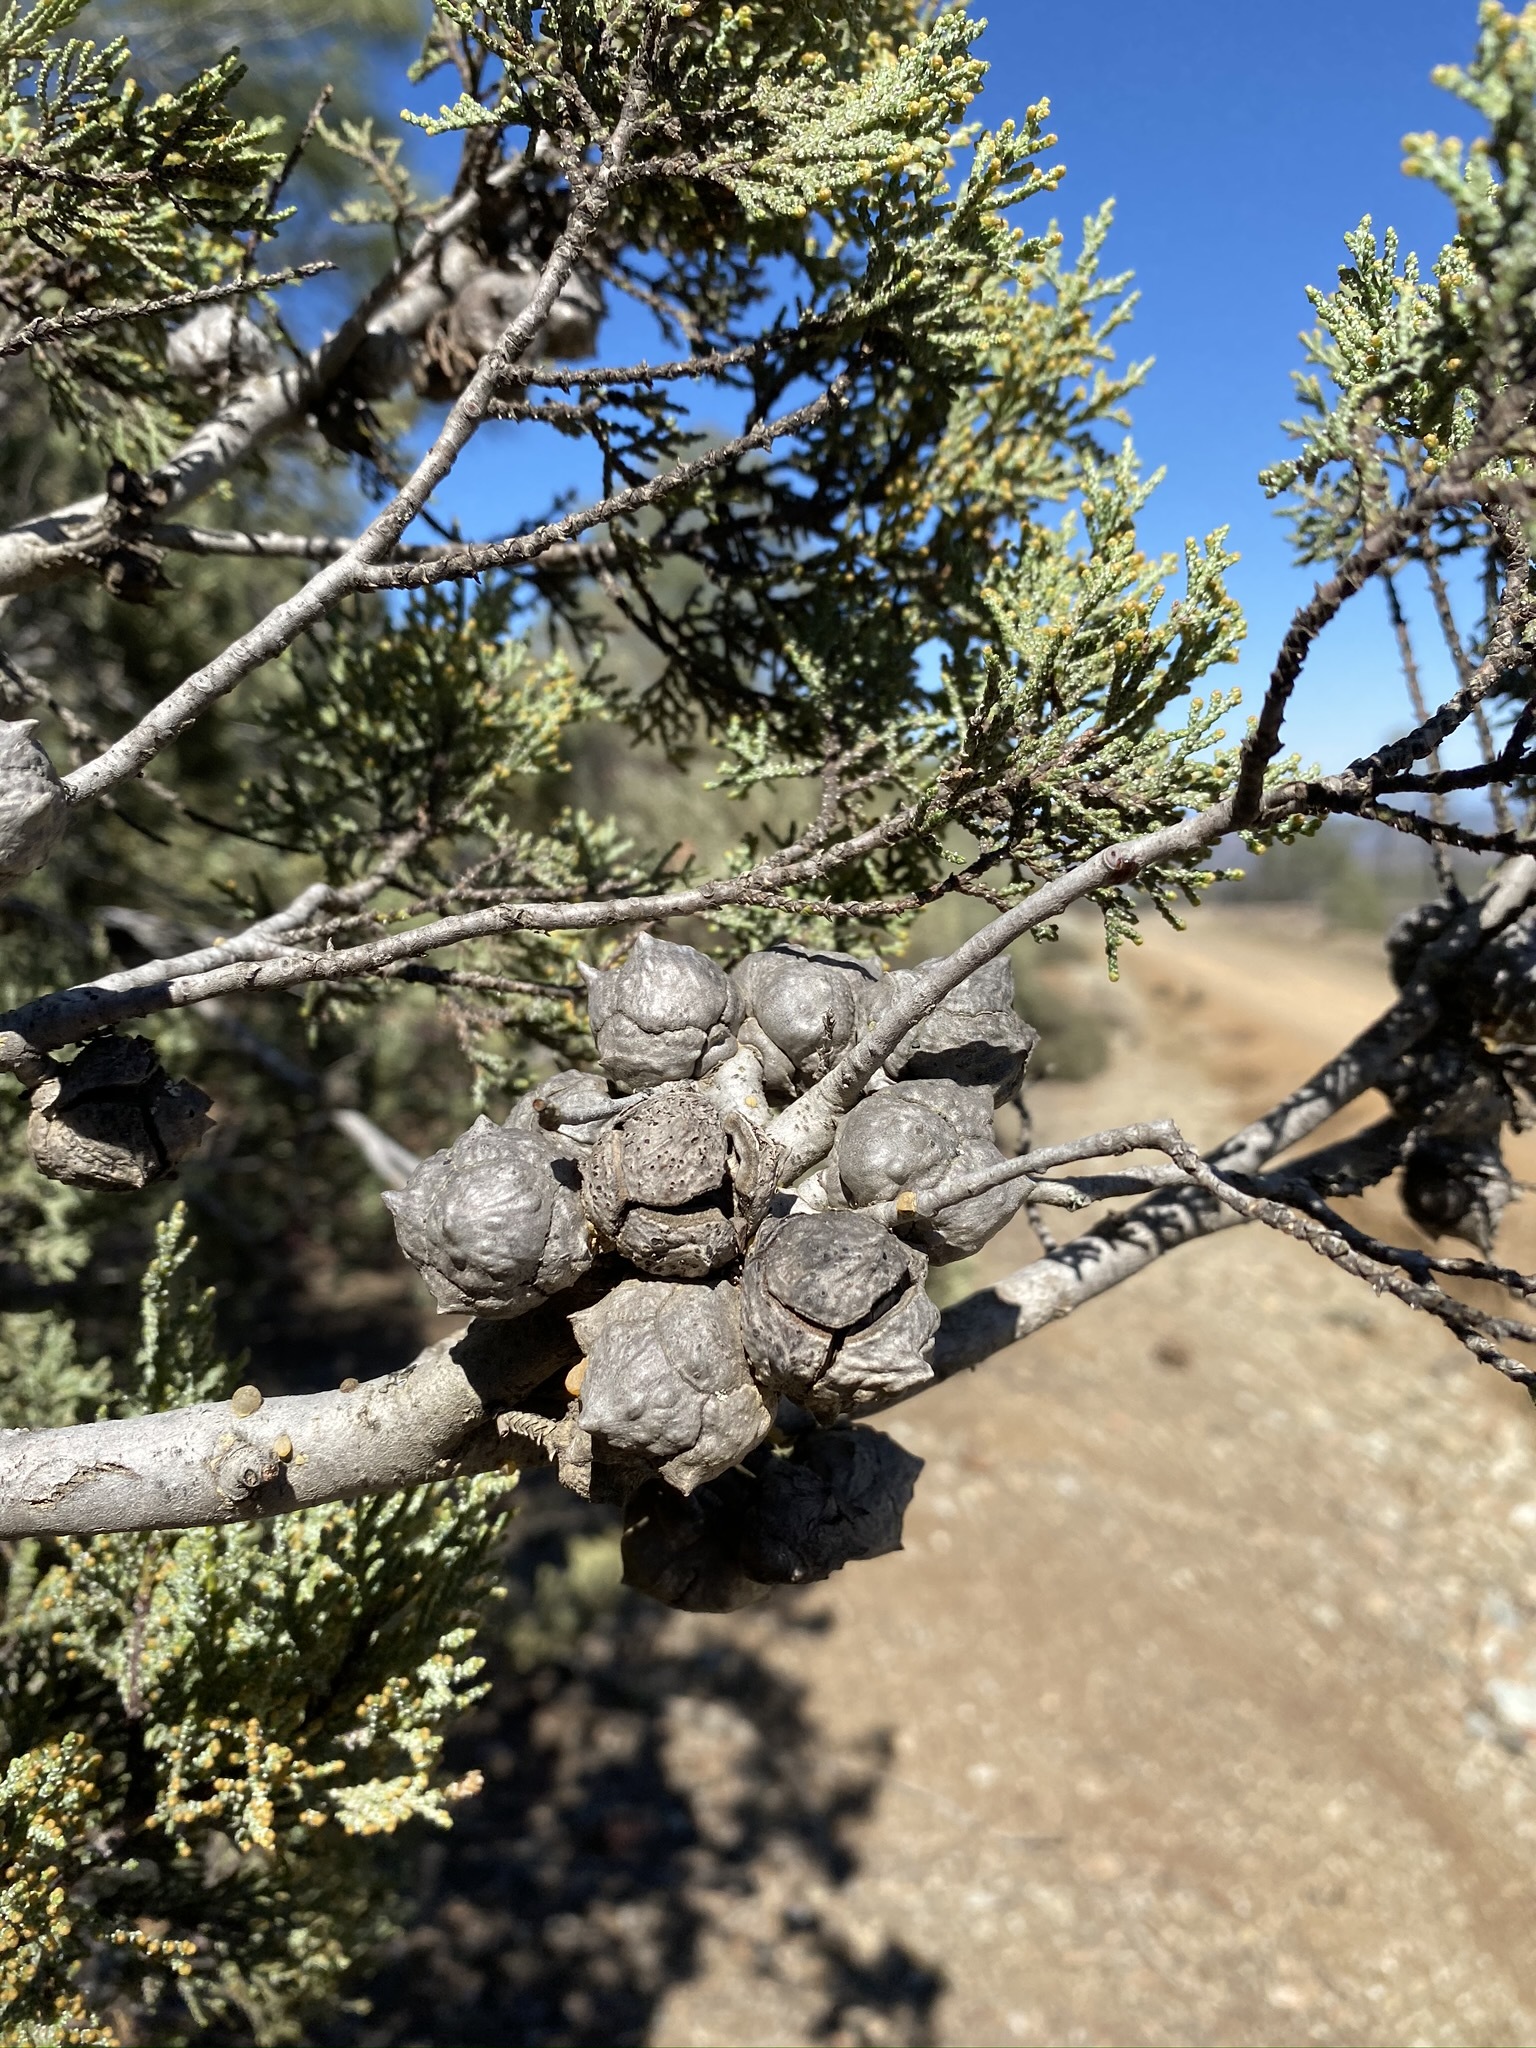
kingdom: Plantae
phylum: Tracheophyta
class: Pinopsida
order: Pinales
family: Cupressaceae
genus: Cupressus
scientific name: Cupressus macnabiana bis
